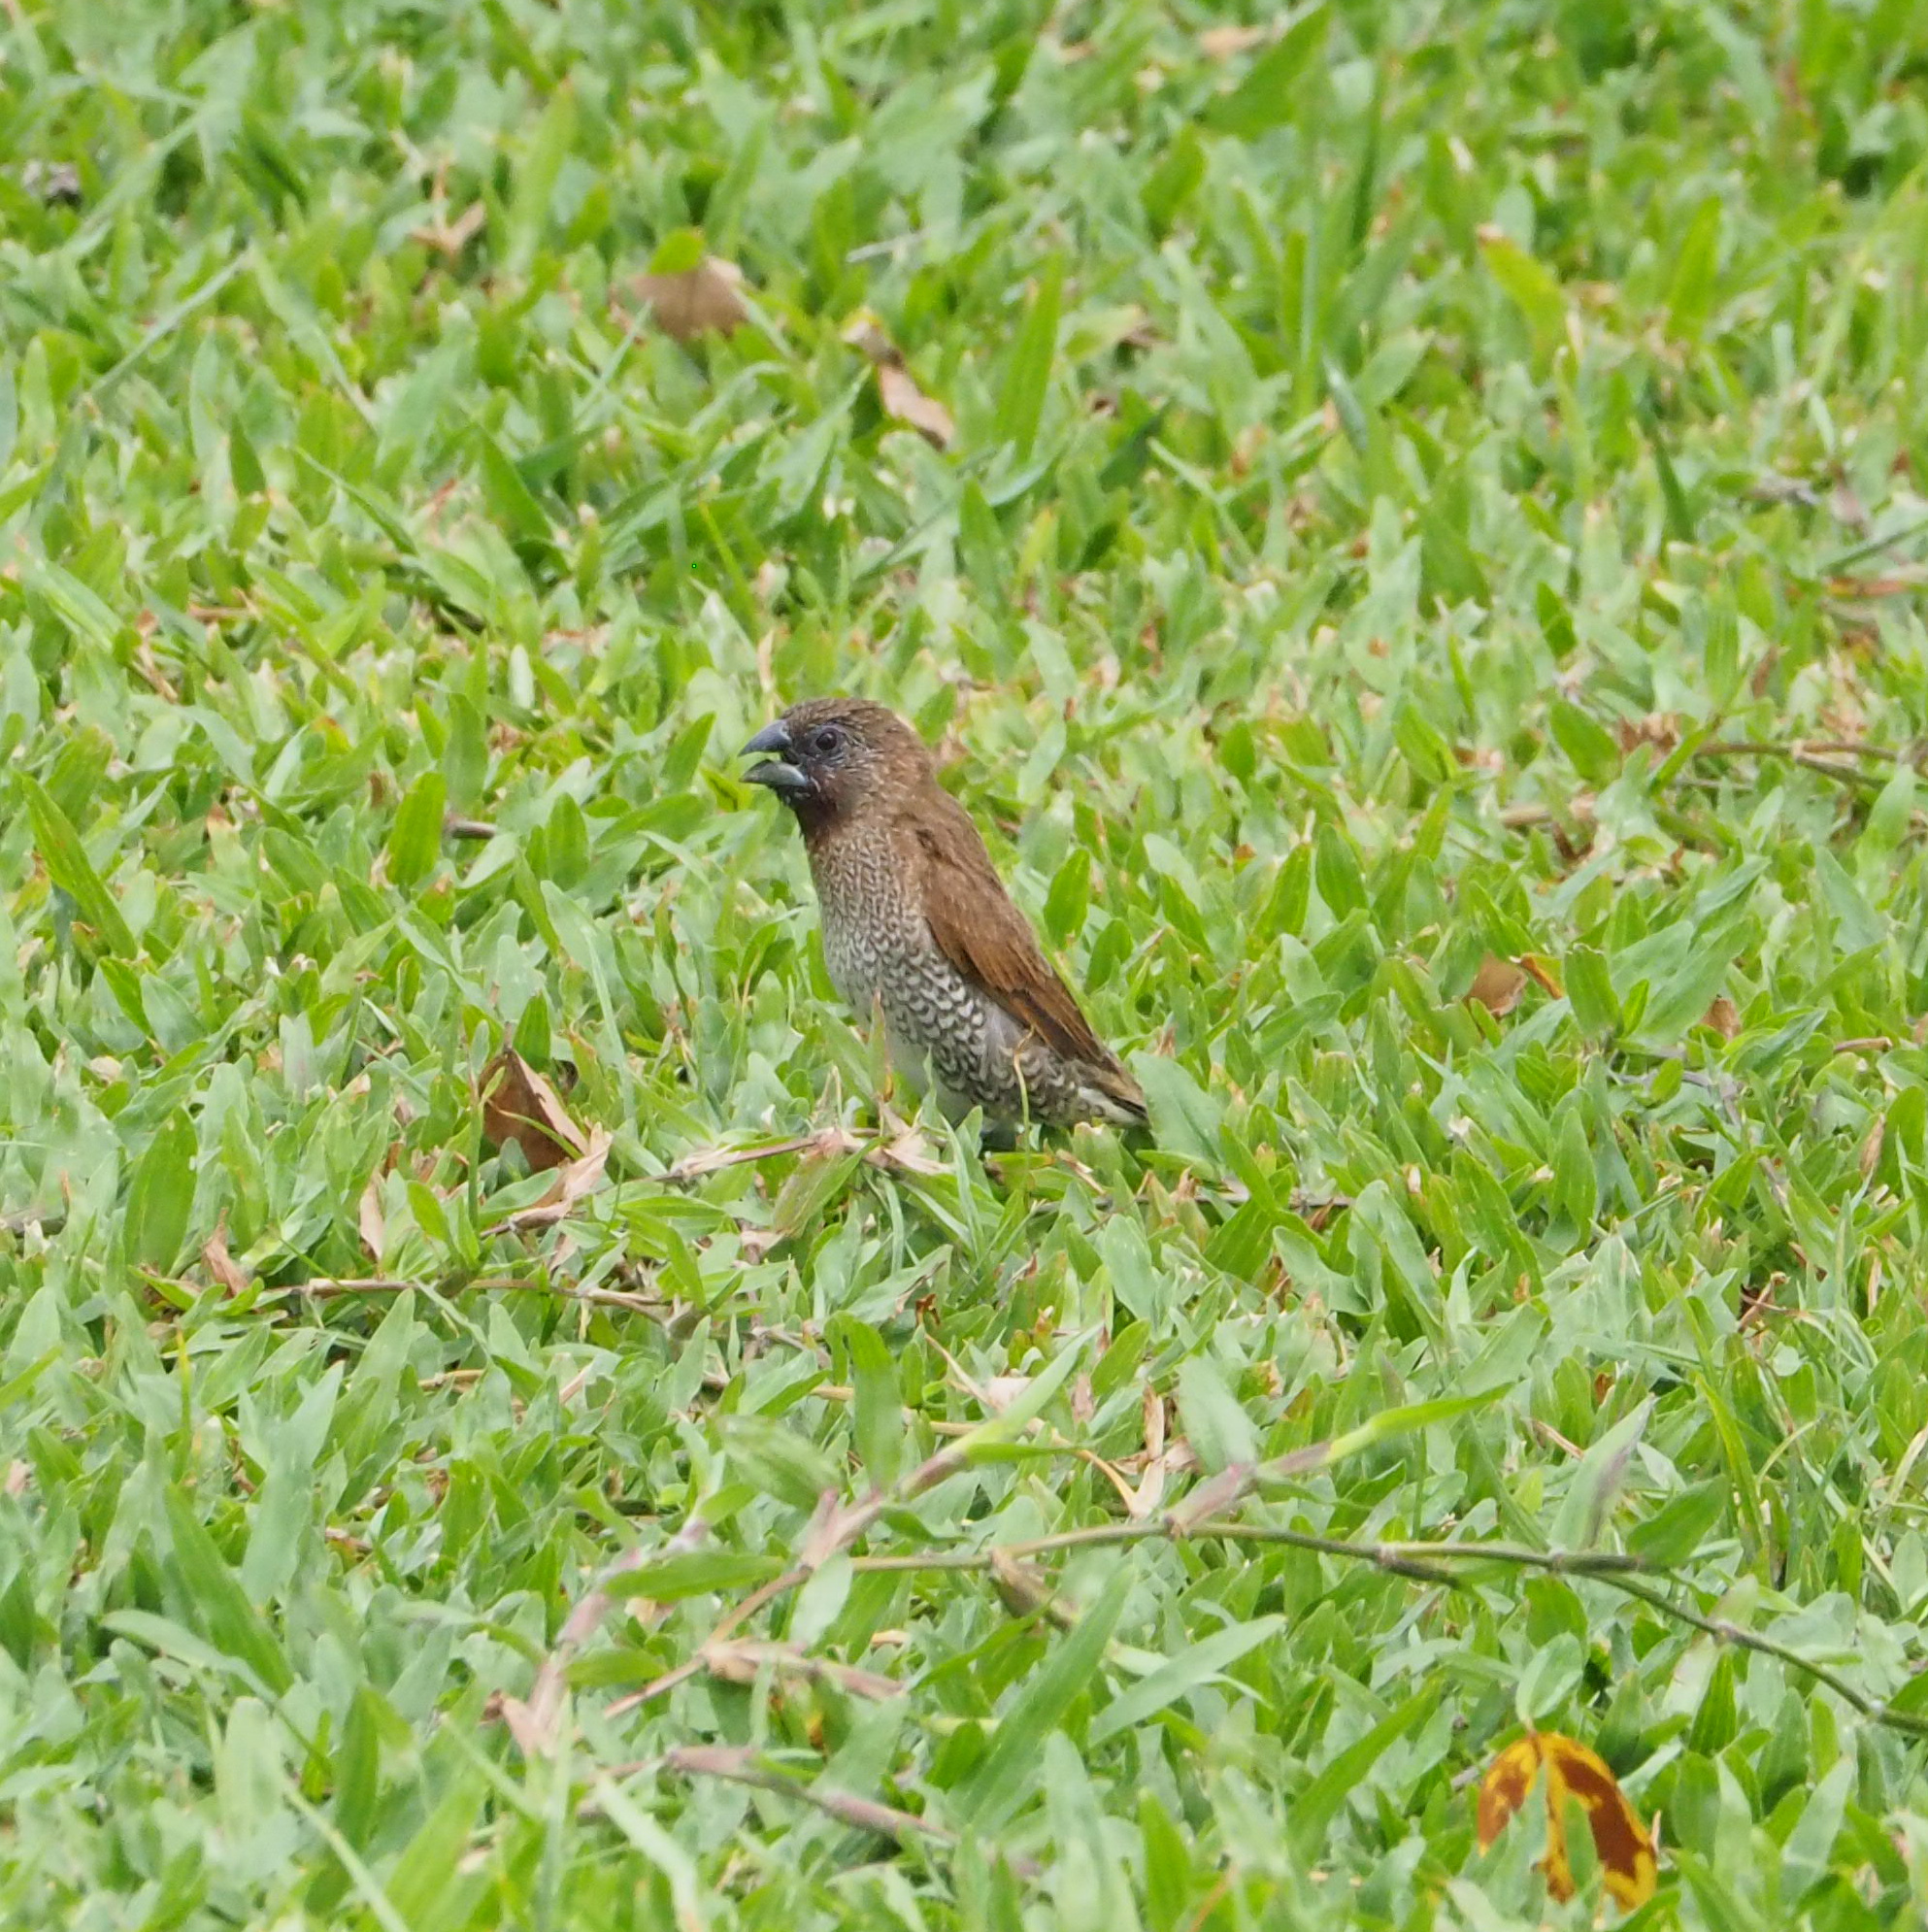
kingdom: Animalia
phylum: Chordata
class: Aves
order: Passeriformes
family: Estrildidae
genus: Lonchura
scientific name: Lonchura punctulata
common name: Scaly-breasted munia
